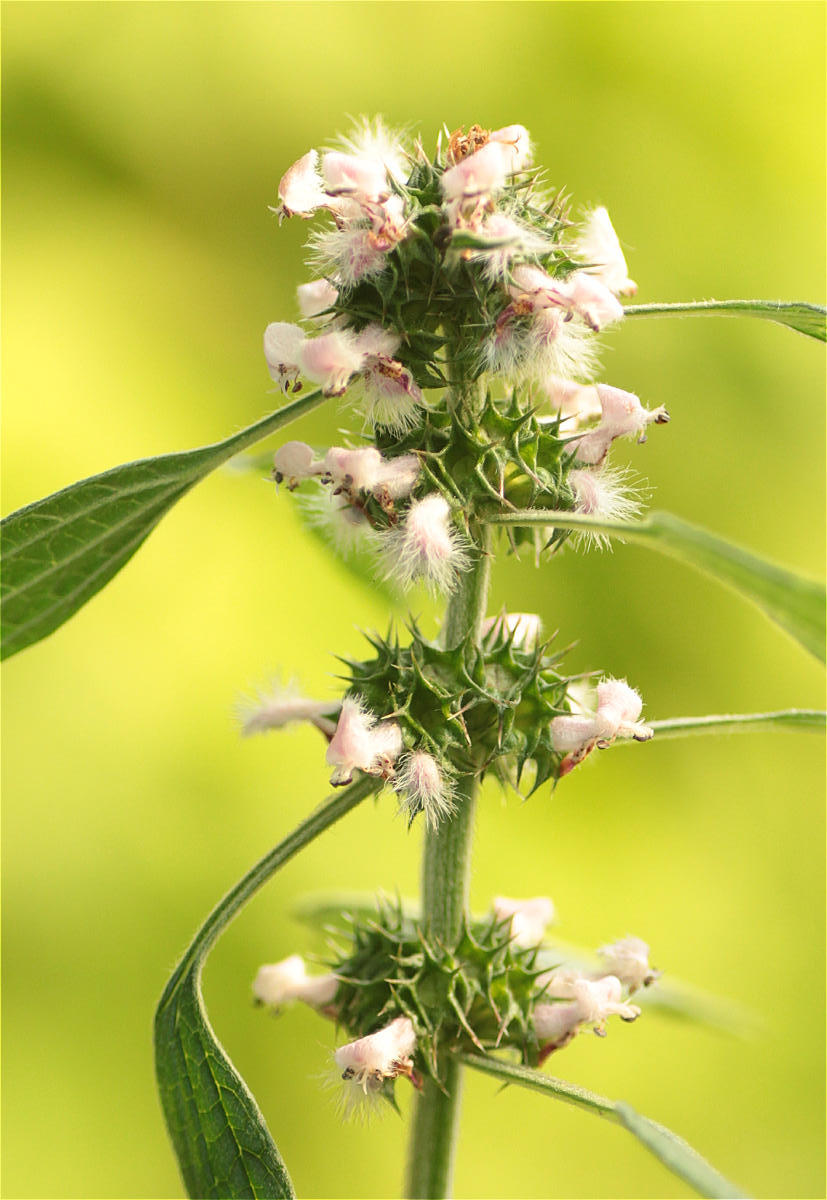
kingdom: Plantae
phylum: Tracheophyta
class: Magnoliopsida
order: Lamiales
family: Lamiaceae
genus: Leonurus
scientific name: Leonurus cardiaca
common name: Motherwort
